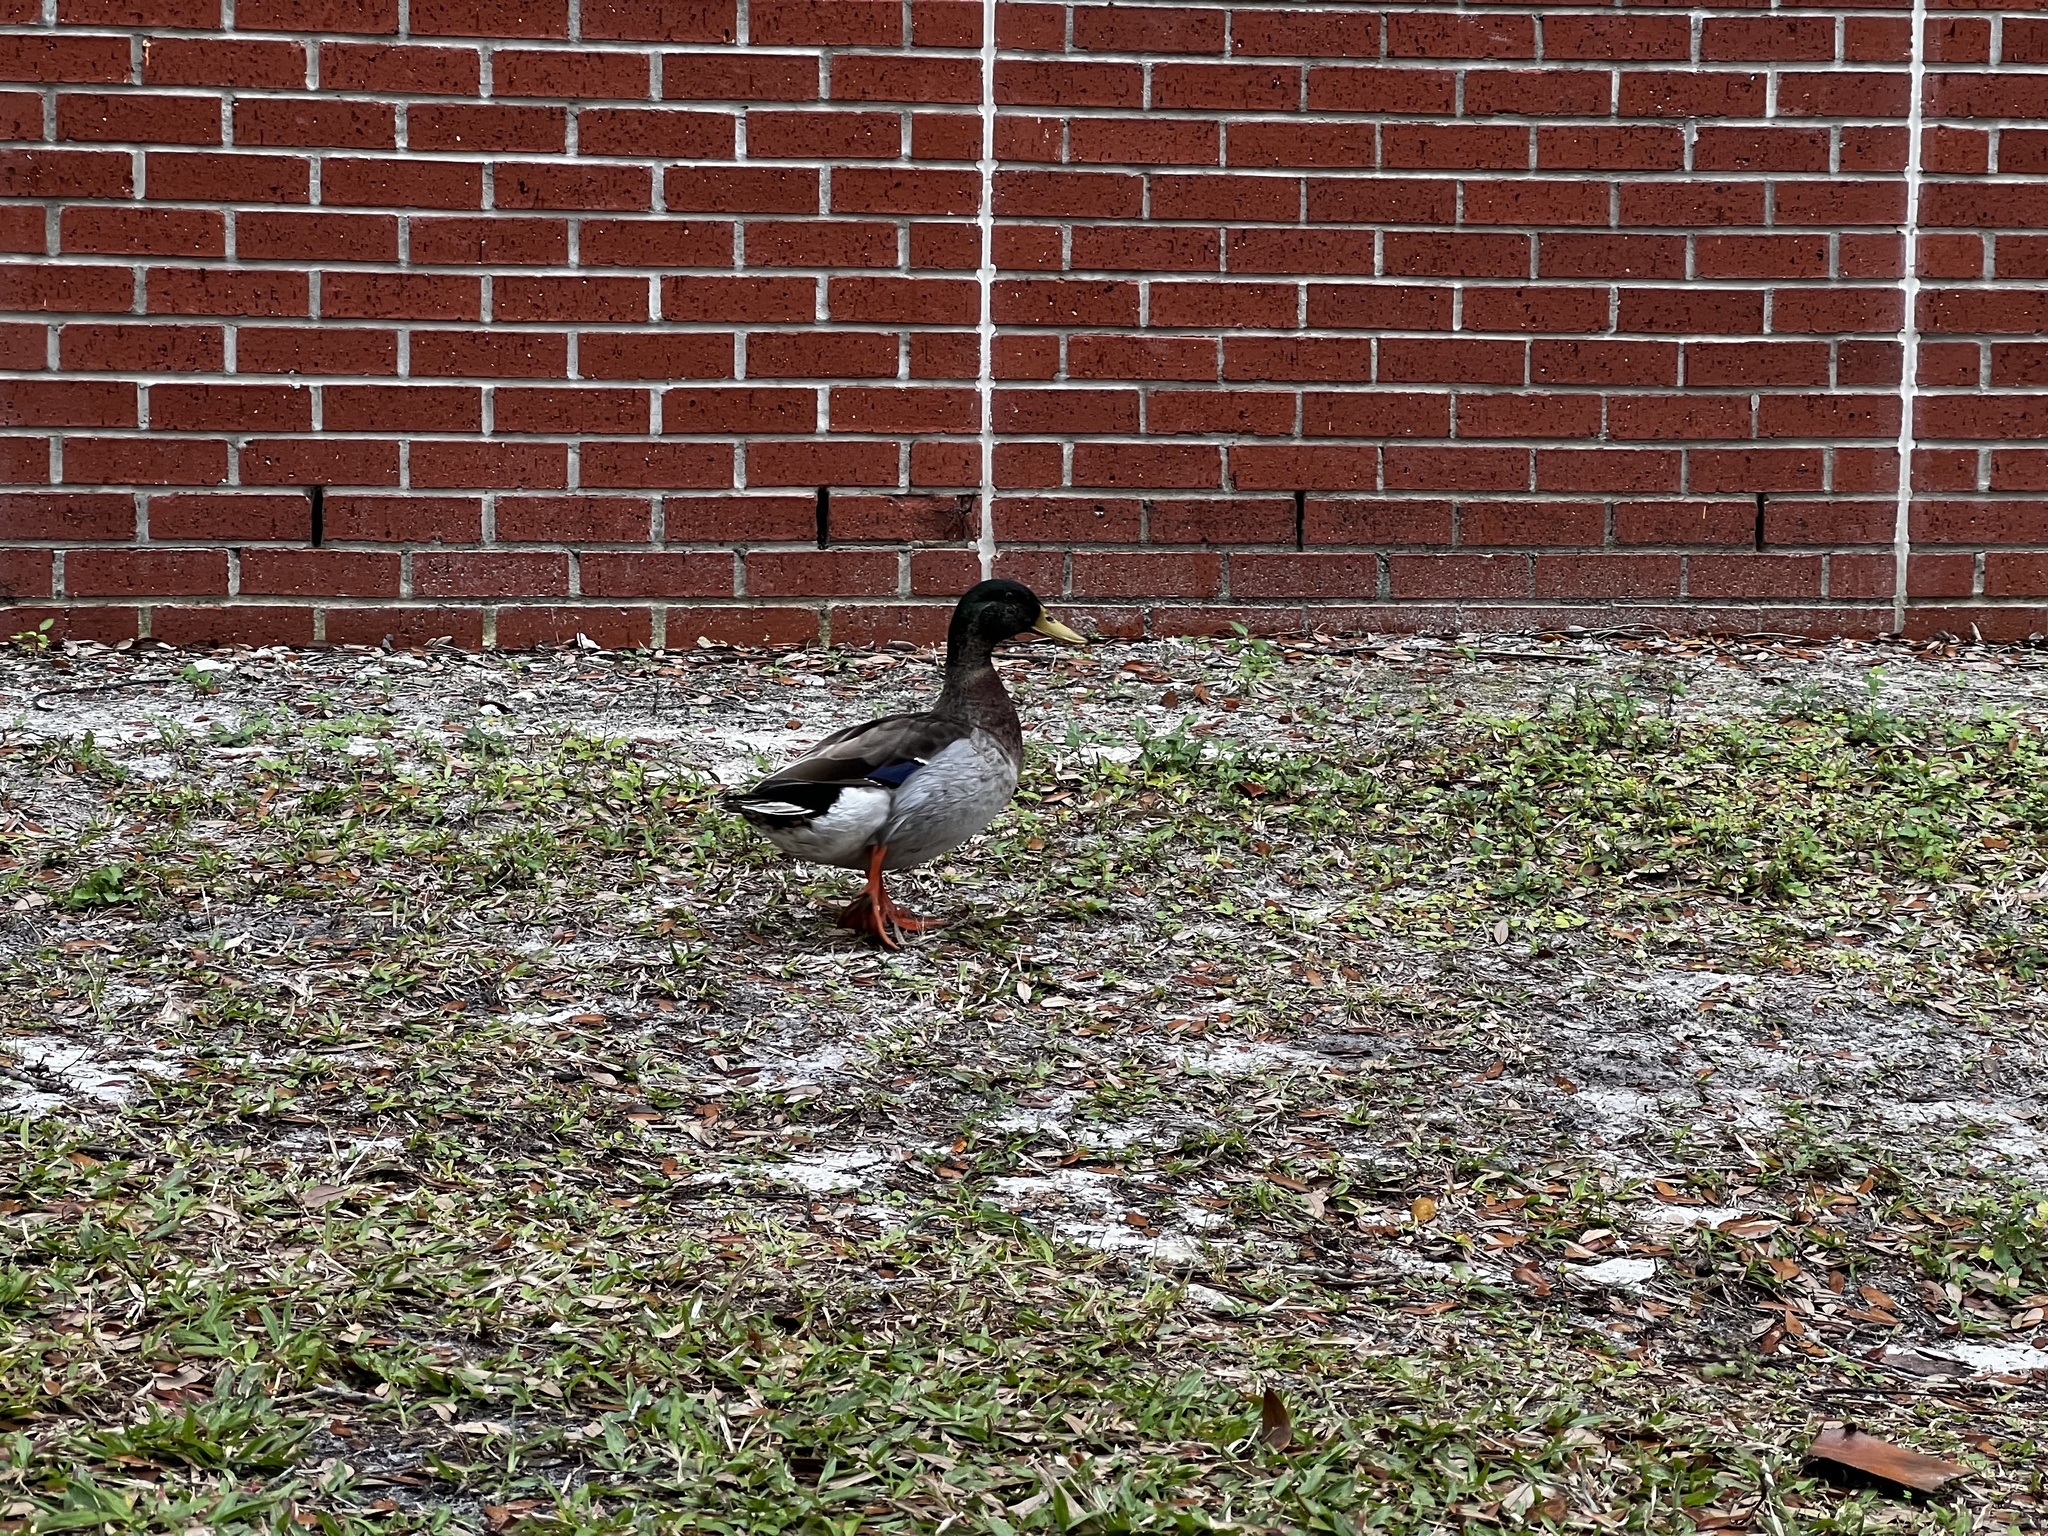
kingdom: Animalia
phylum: Chordata
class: Aves
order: Anseriformes
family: Anatidae
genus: Anas
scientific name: Anas platyrhynchos
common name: Mallard
